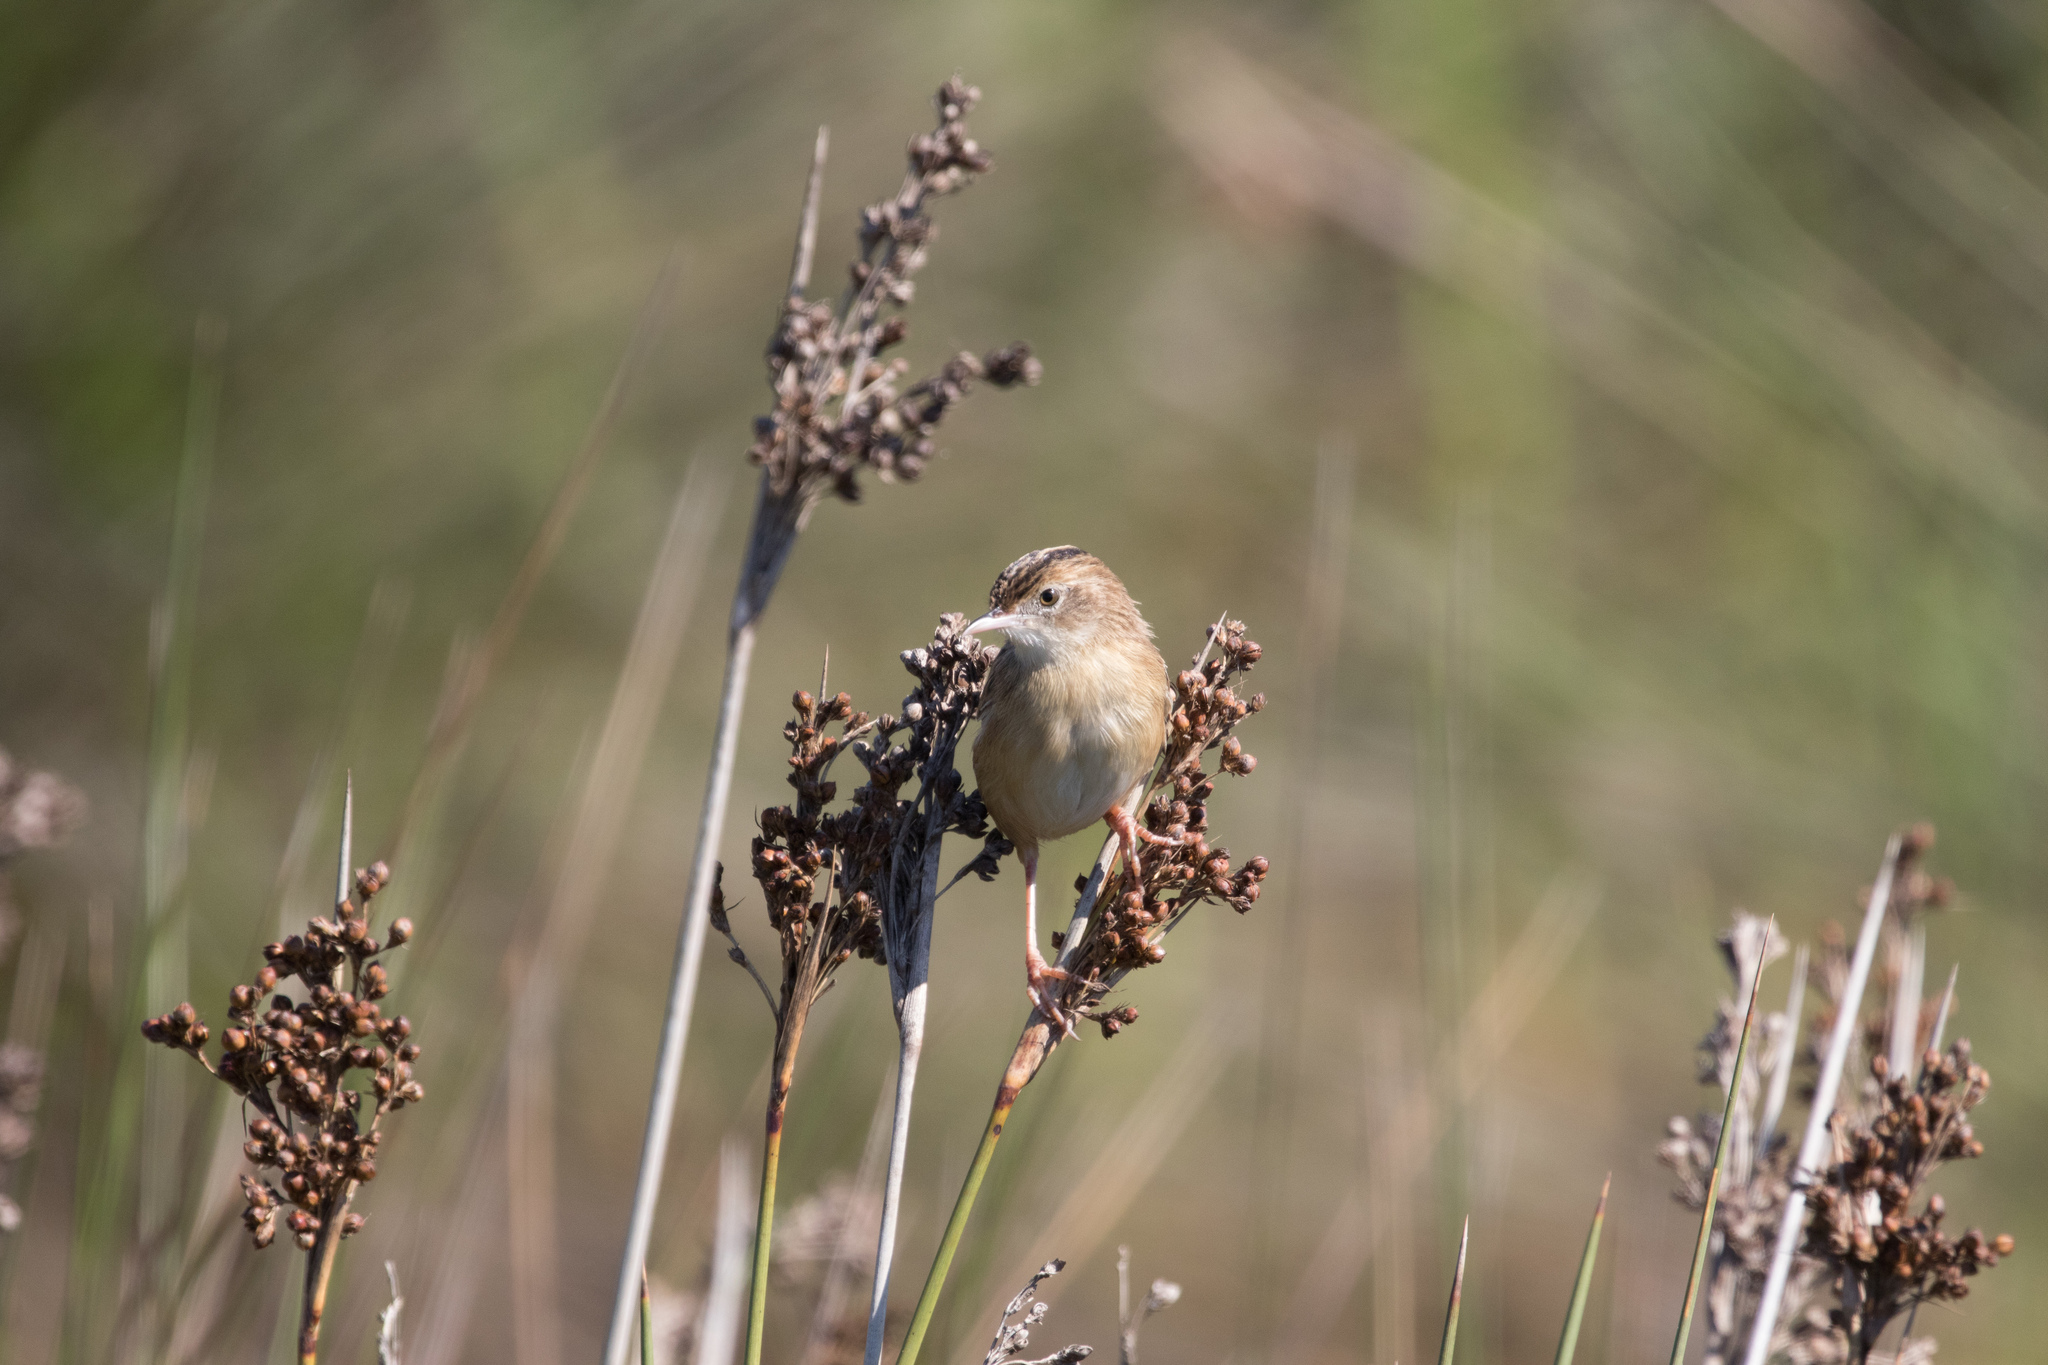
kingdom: Animalia
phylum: Chordata
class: Aves
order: Passeriformes
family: Cisticolidae
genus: Cisticola
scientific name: Cisticola juncidis
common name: Zitting cisticola
